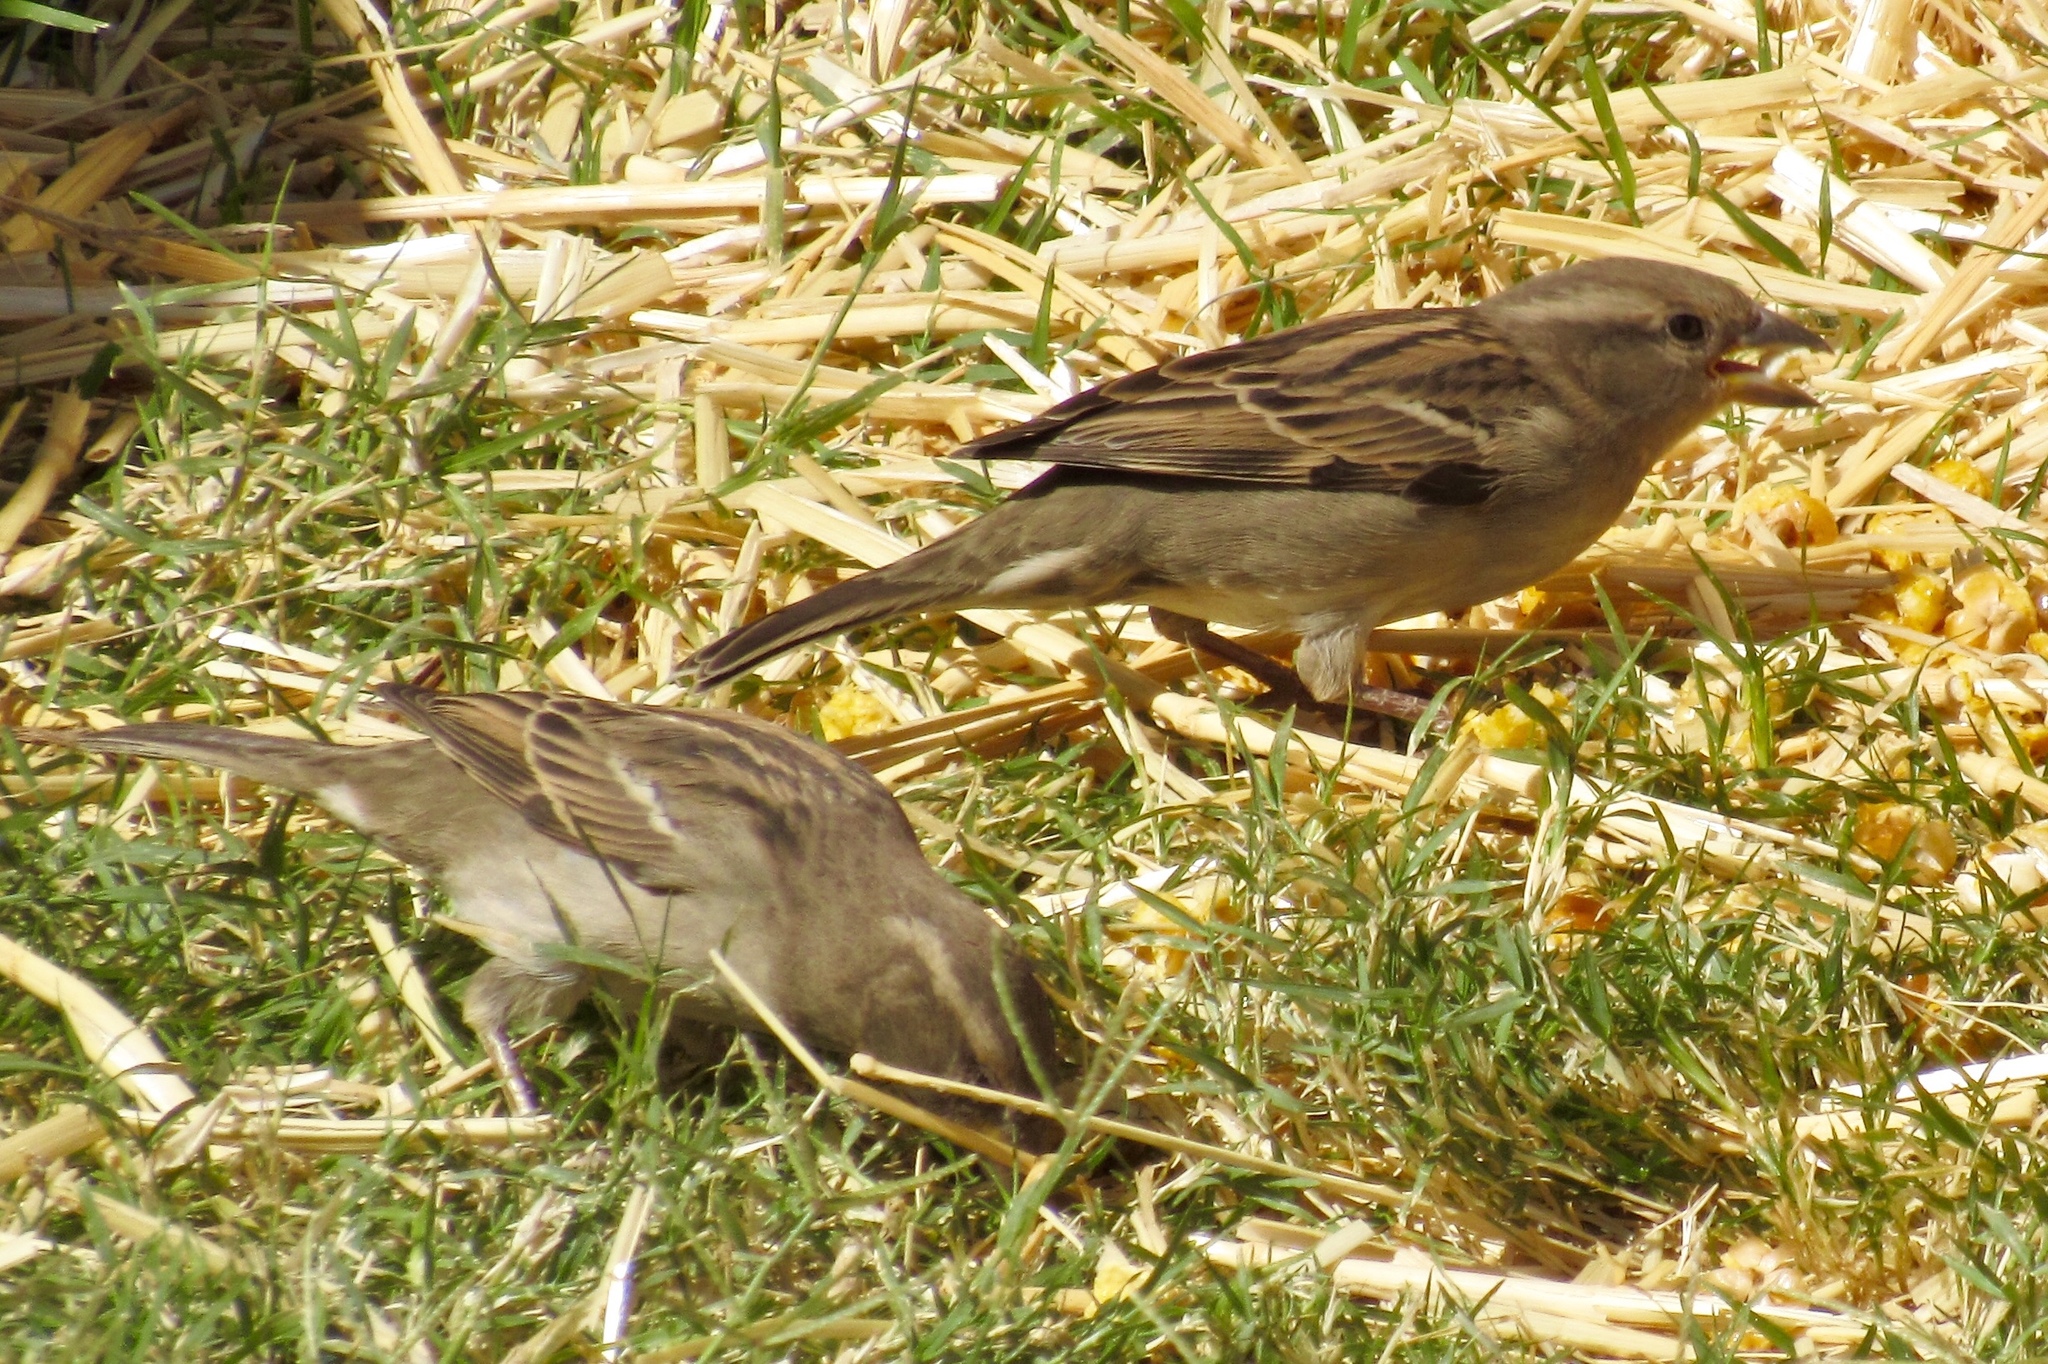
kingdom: Animalia
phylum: Chordata
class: Aves
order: Passeriformes
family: Passeridae
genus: Passer
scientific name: Passer domesticus
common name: House sparrow
